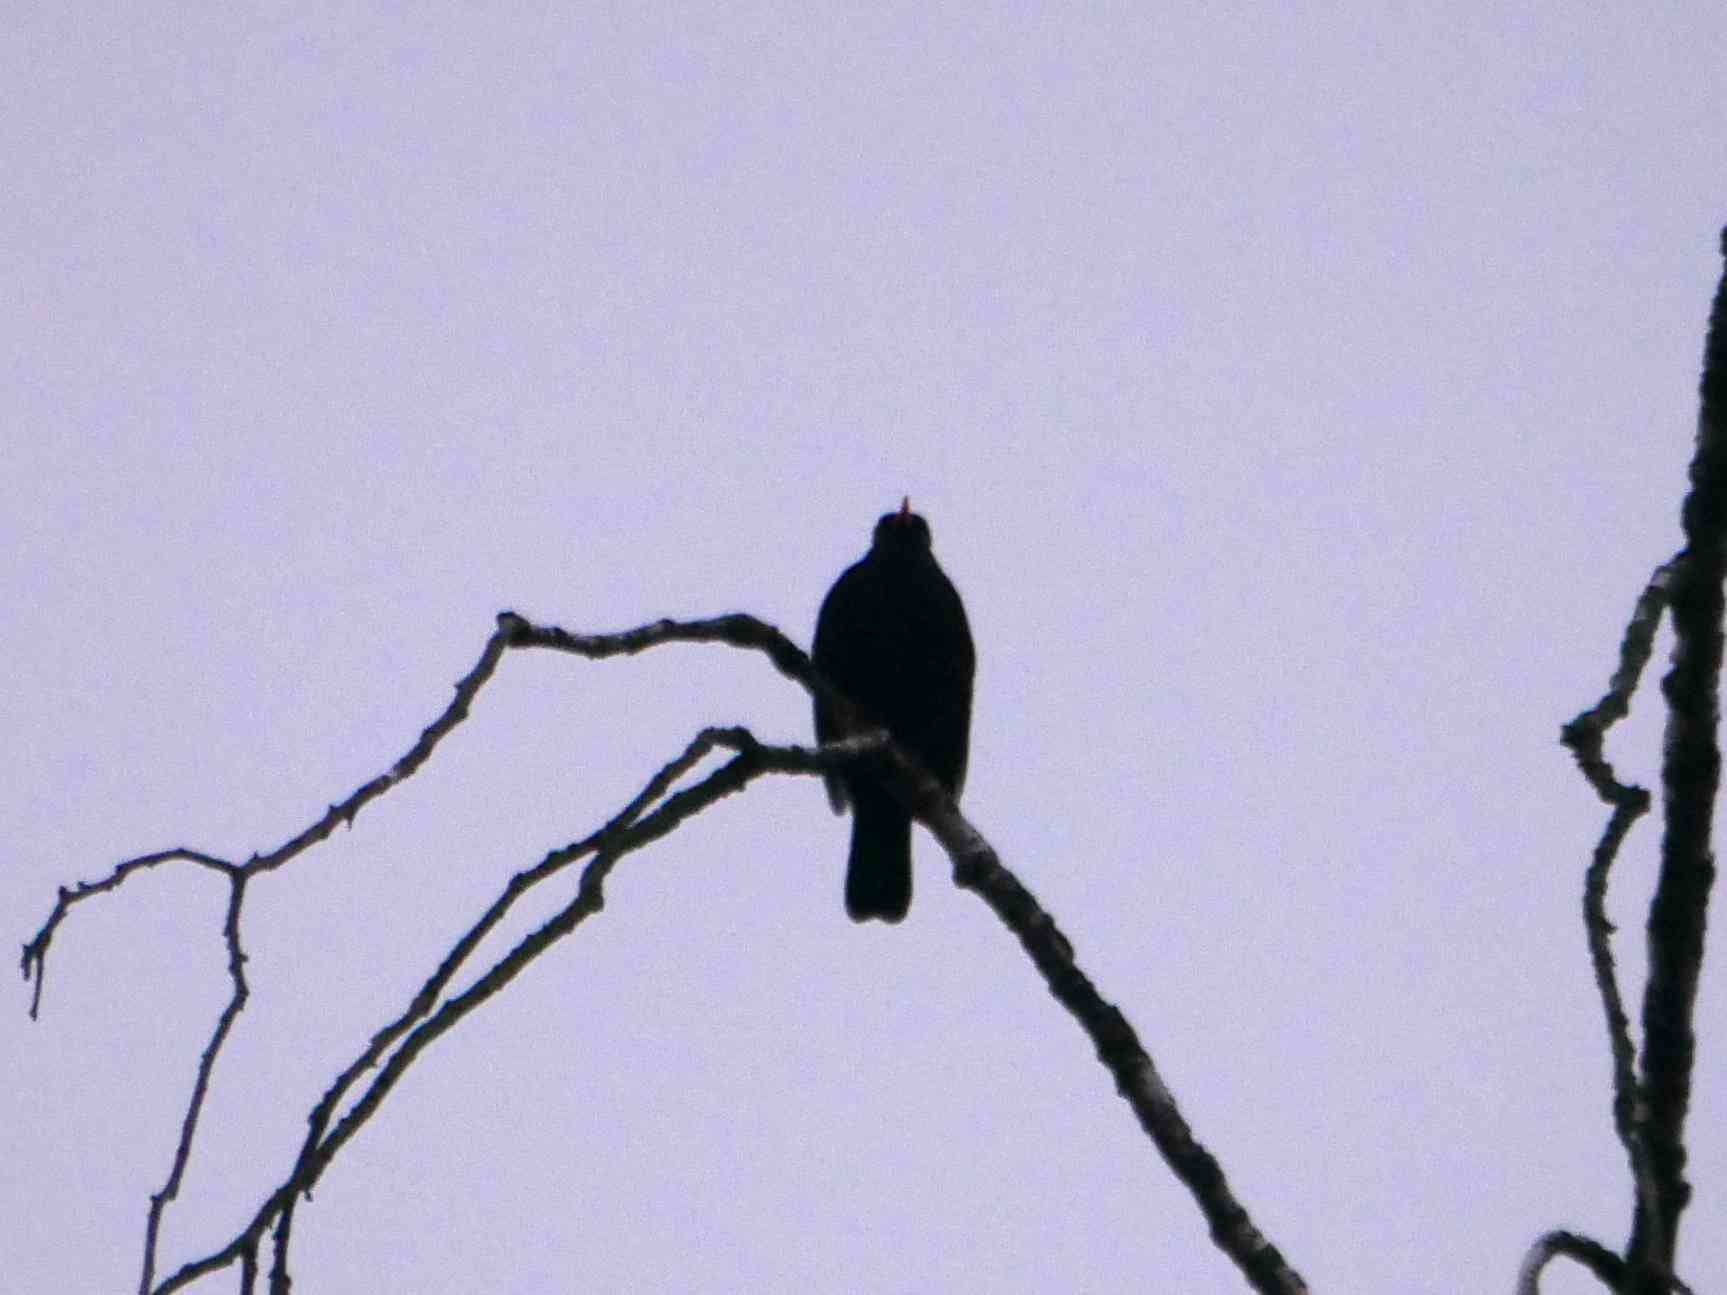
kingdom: Animalia
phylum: Chordata
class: Aves
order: Passeriformes
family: Turdidae
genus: Turdus
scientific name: Turdus merula
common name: Common blackbird
